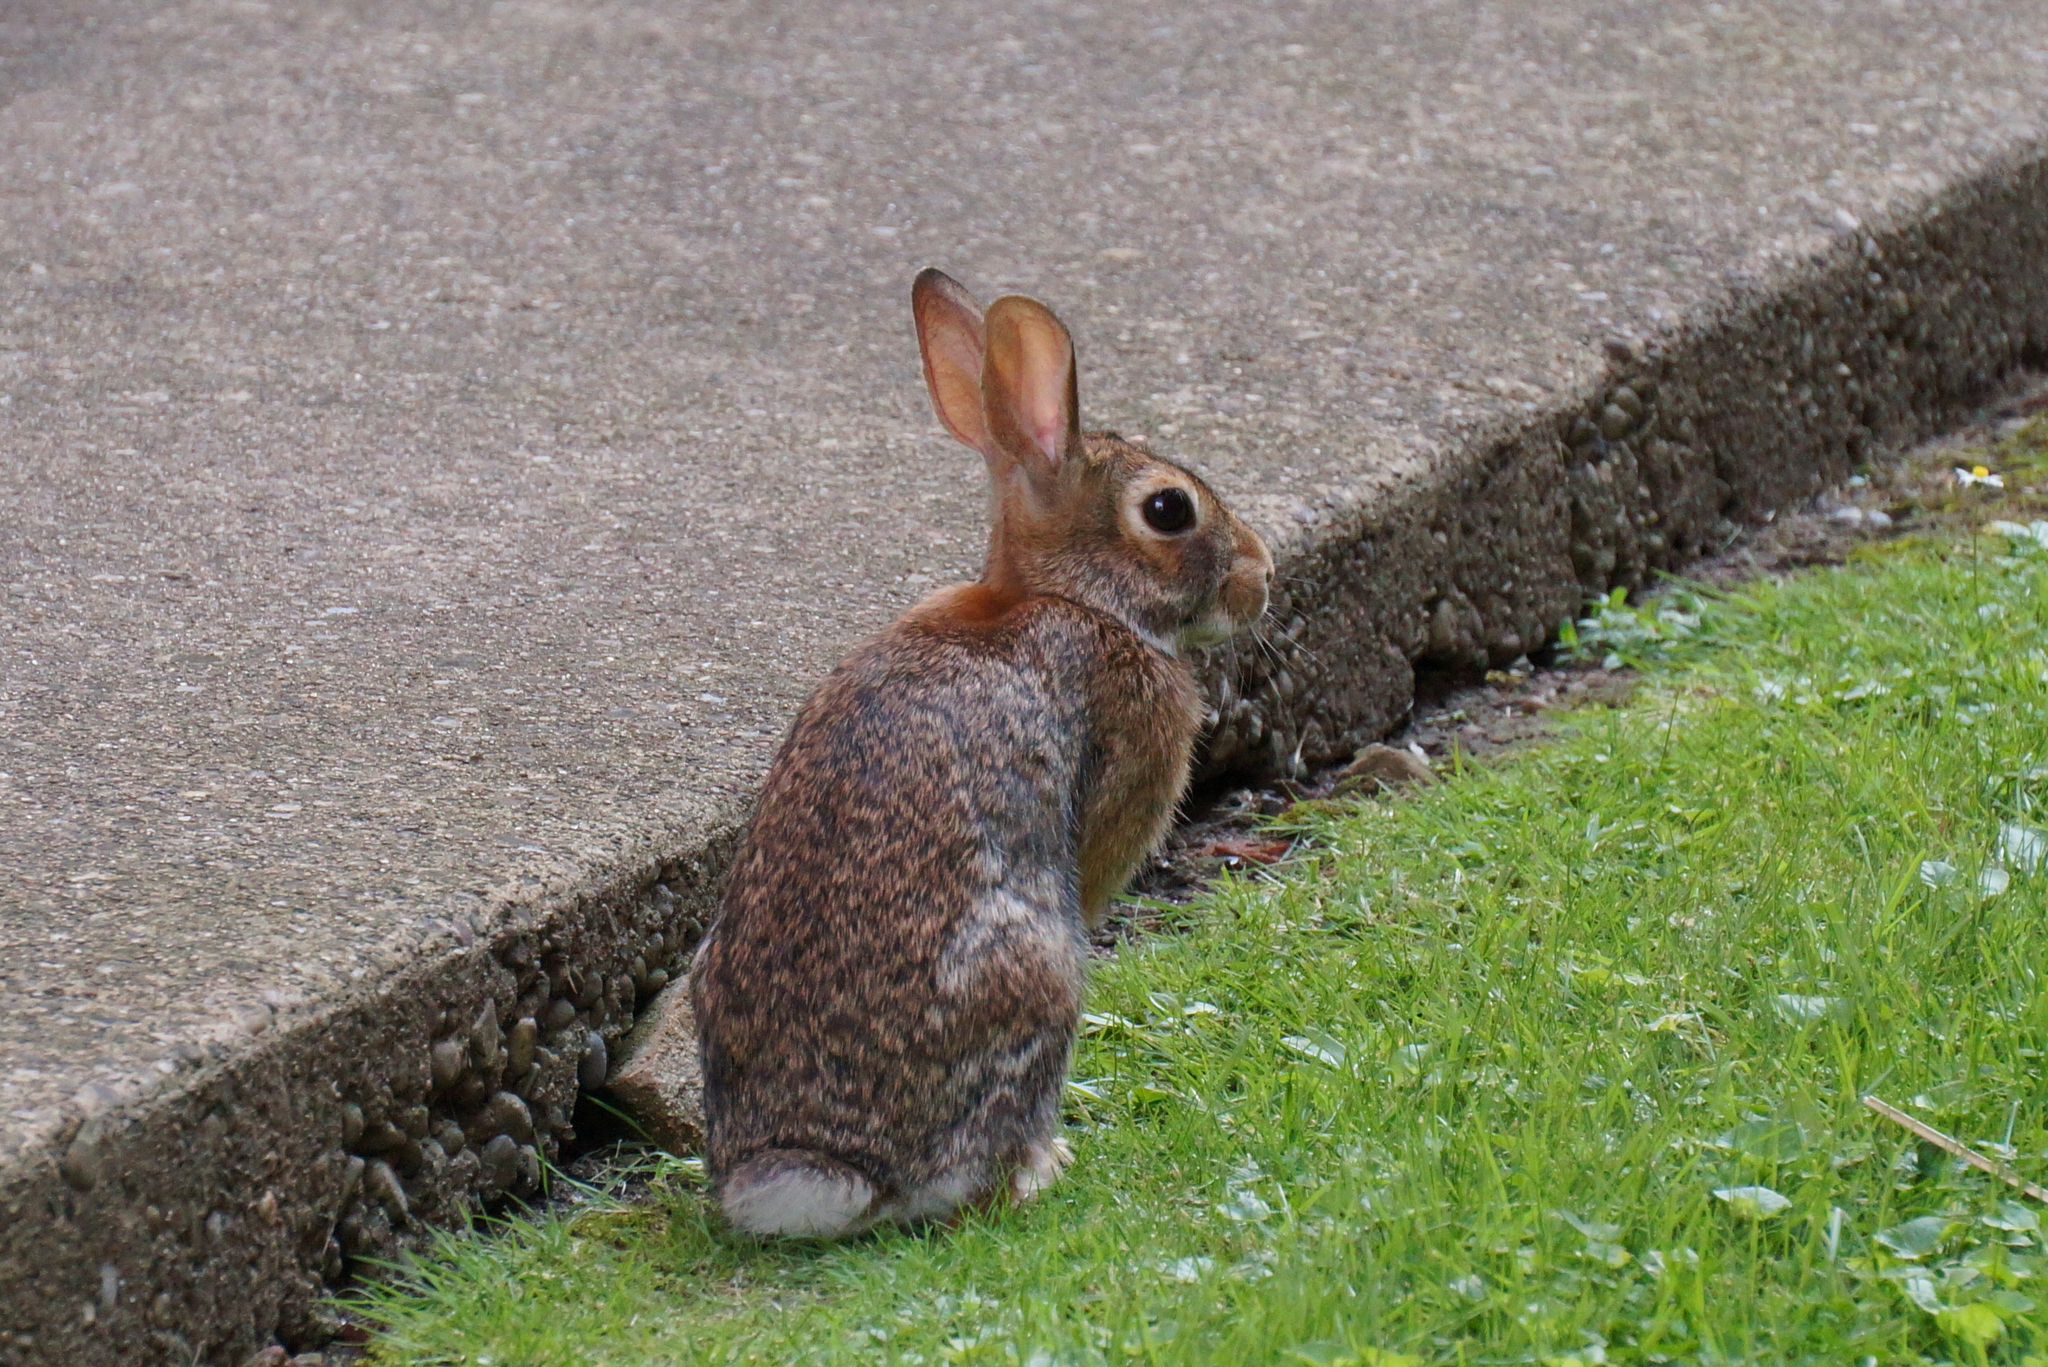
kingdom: Animalia
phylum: Chordata
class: Mammalia
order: Lagomorpha
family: Leporidae
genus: Sylvilagus
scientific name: Sylvilagus floridanus
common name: Eastern cottontail
